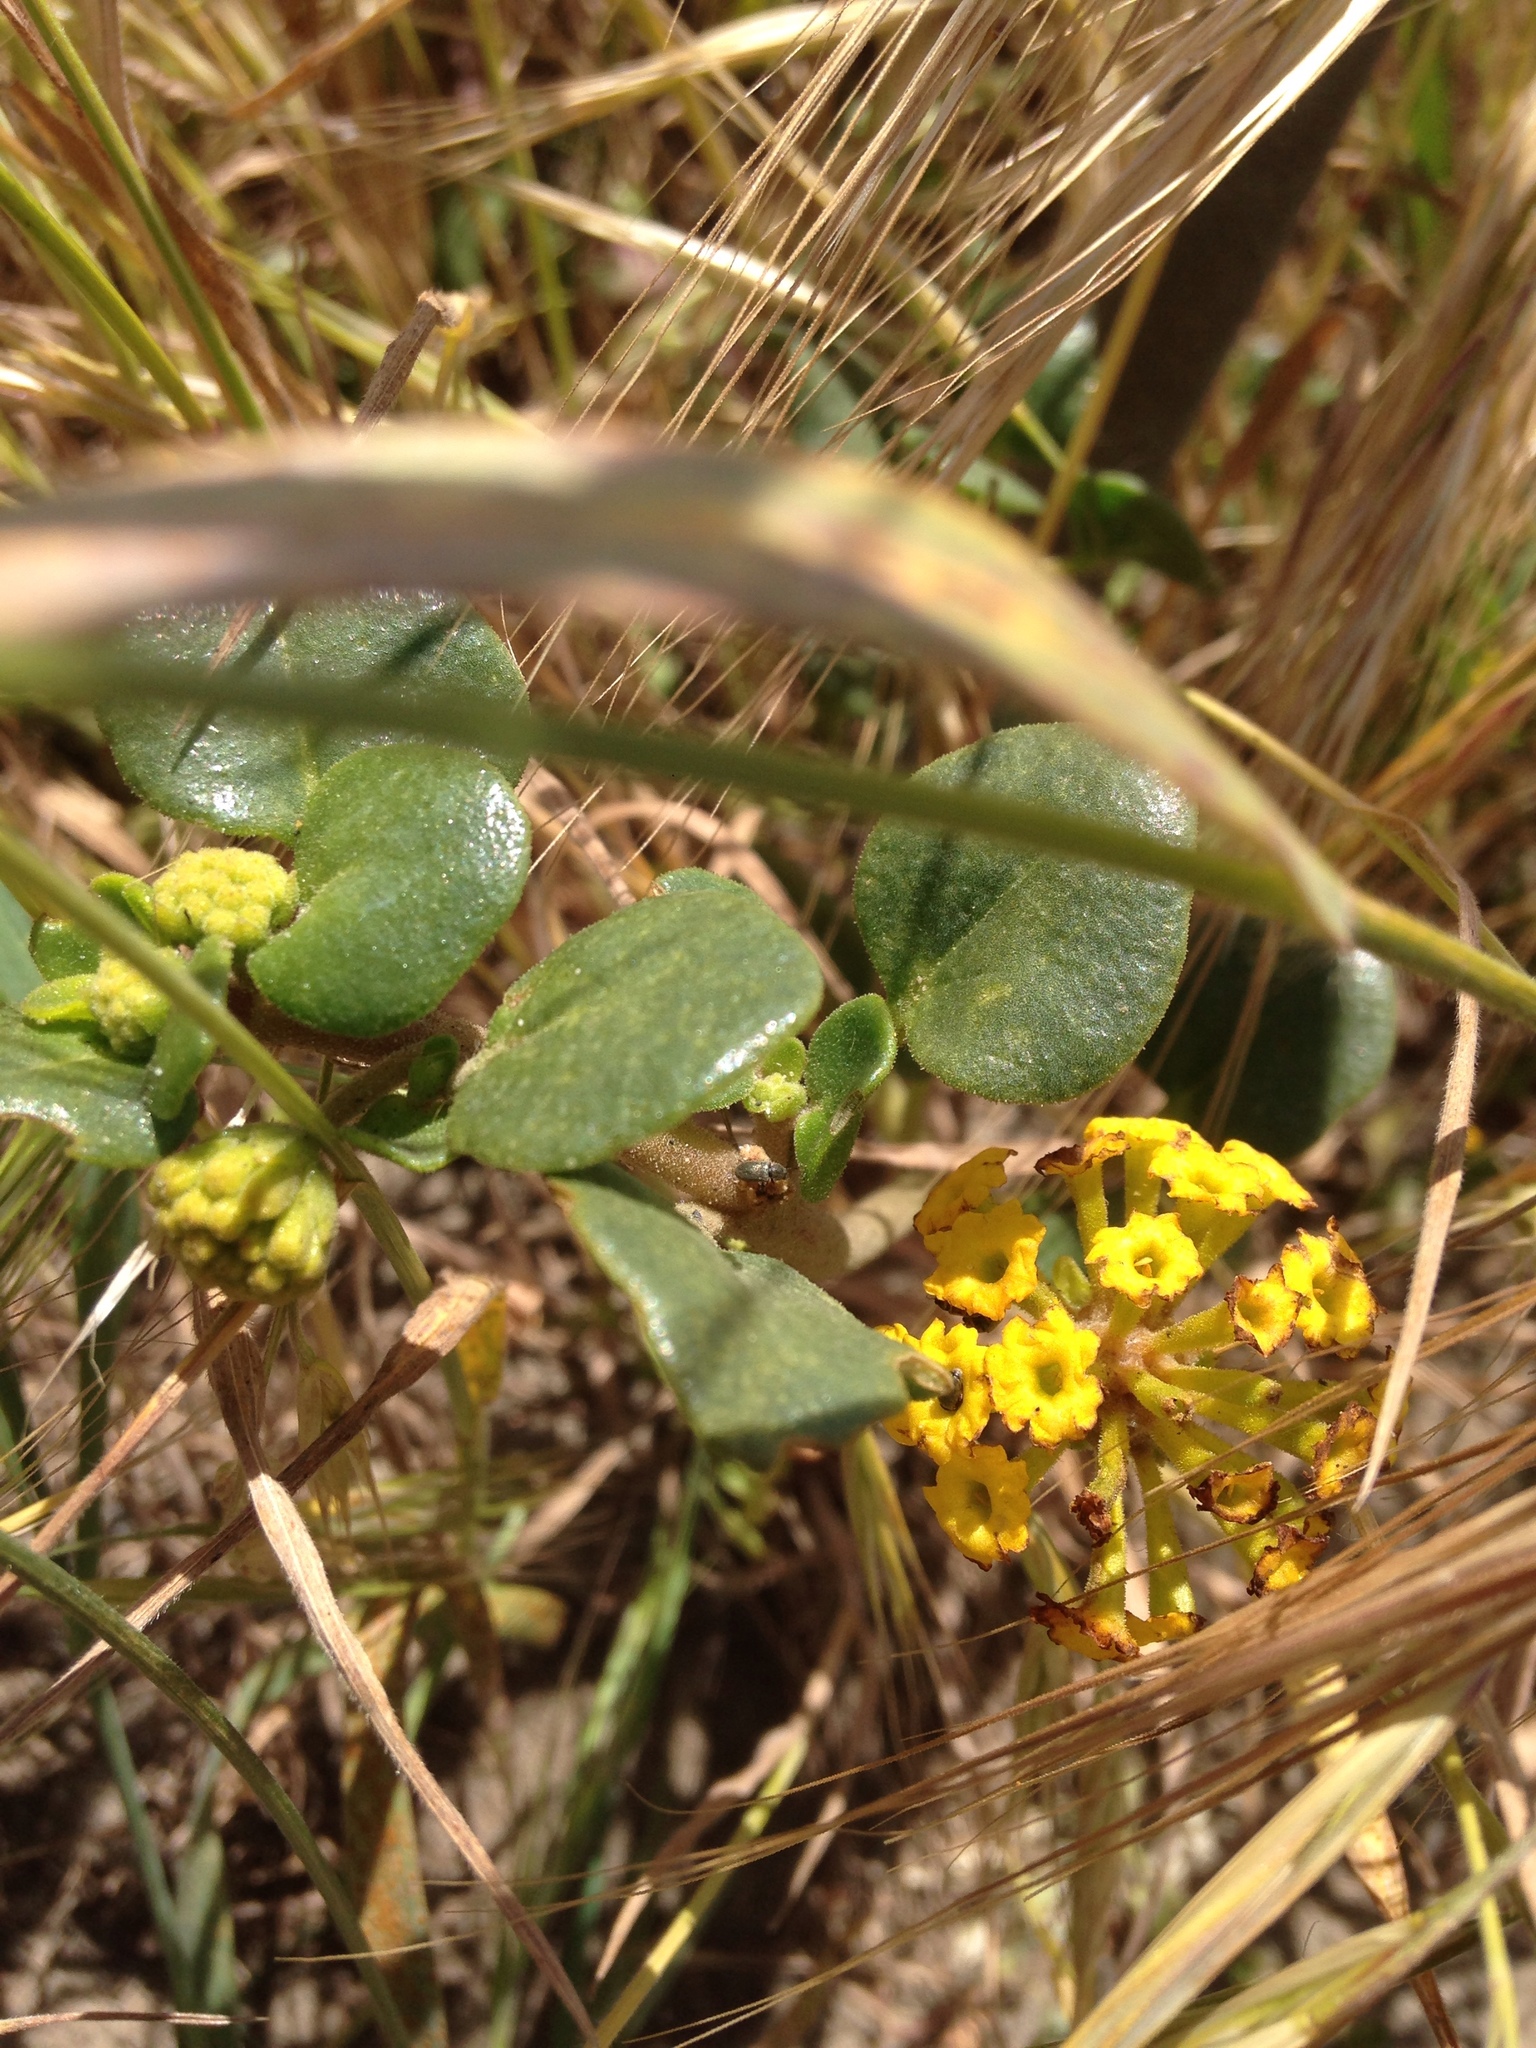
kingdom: Plantae
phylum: Tracheophyta
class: Magnoliopsida
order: Caryophyllales
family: Nyctaginaceae
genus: Abronia
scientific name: Abronia latifolia
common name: Yellow sand-verbena
